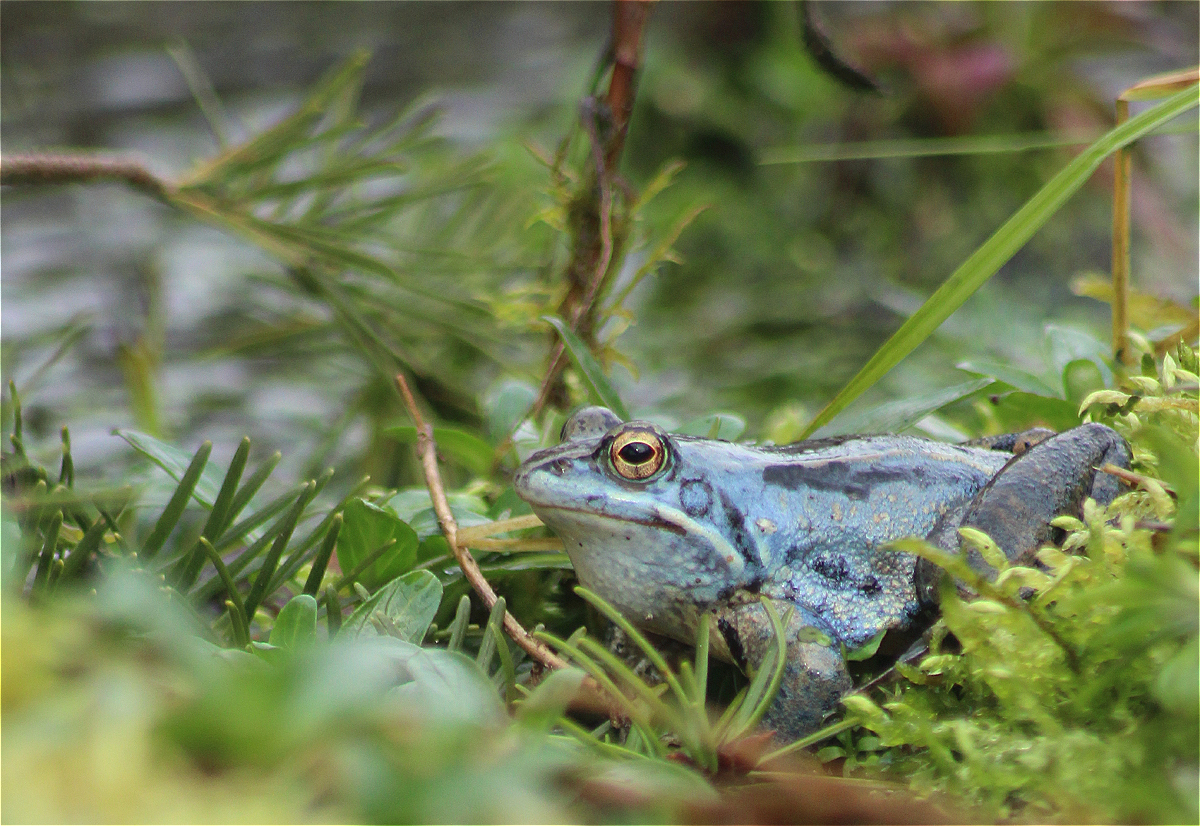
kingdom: Animalia
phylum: Chordata
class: Amphibia
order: Anura
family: Ranidae
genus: Rana
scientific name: Rana arvalis
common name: Moor frog
